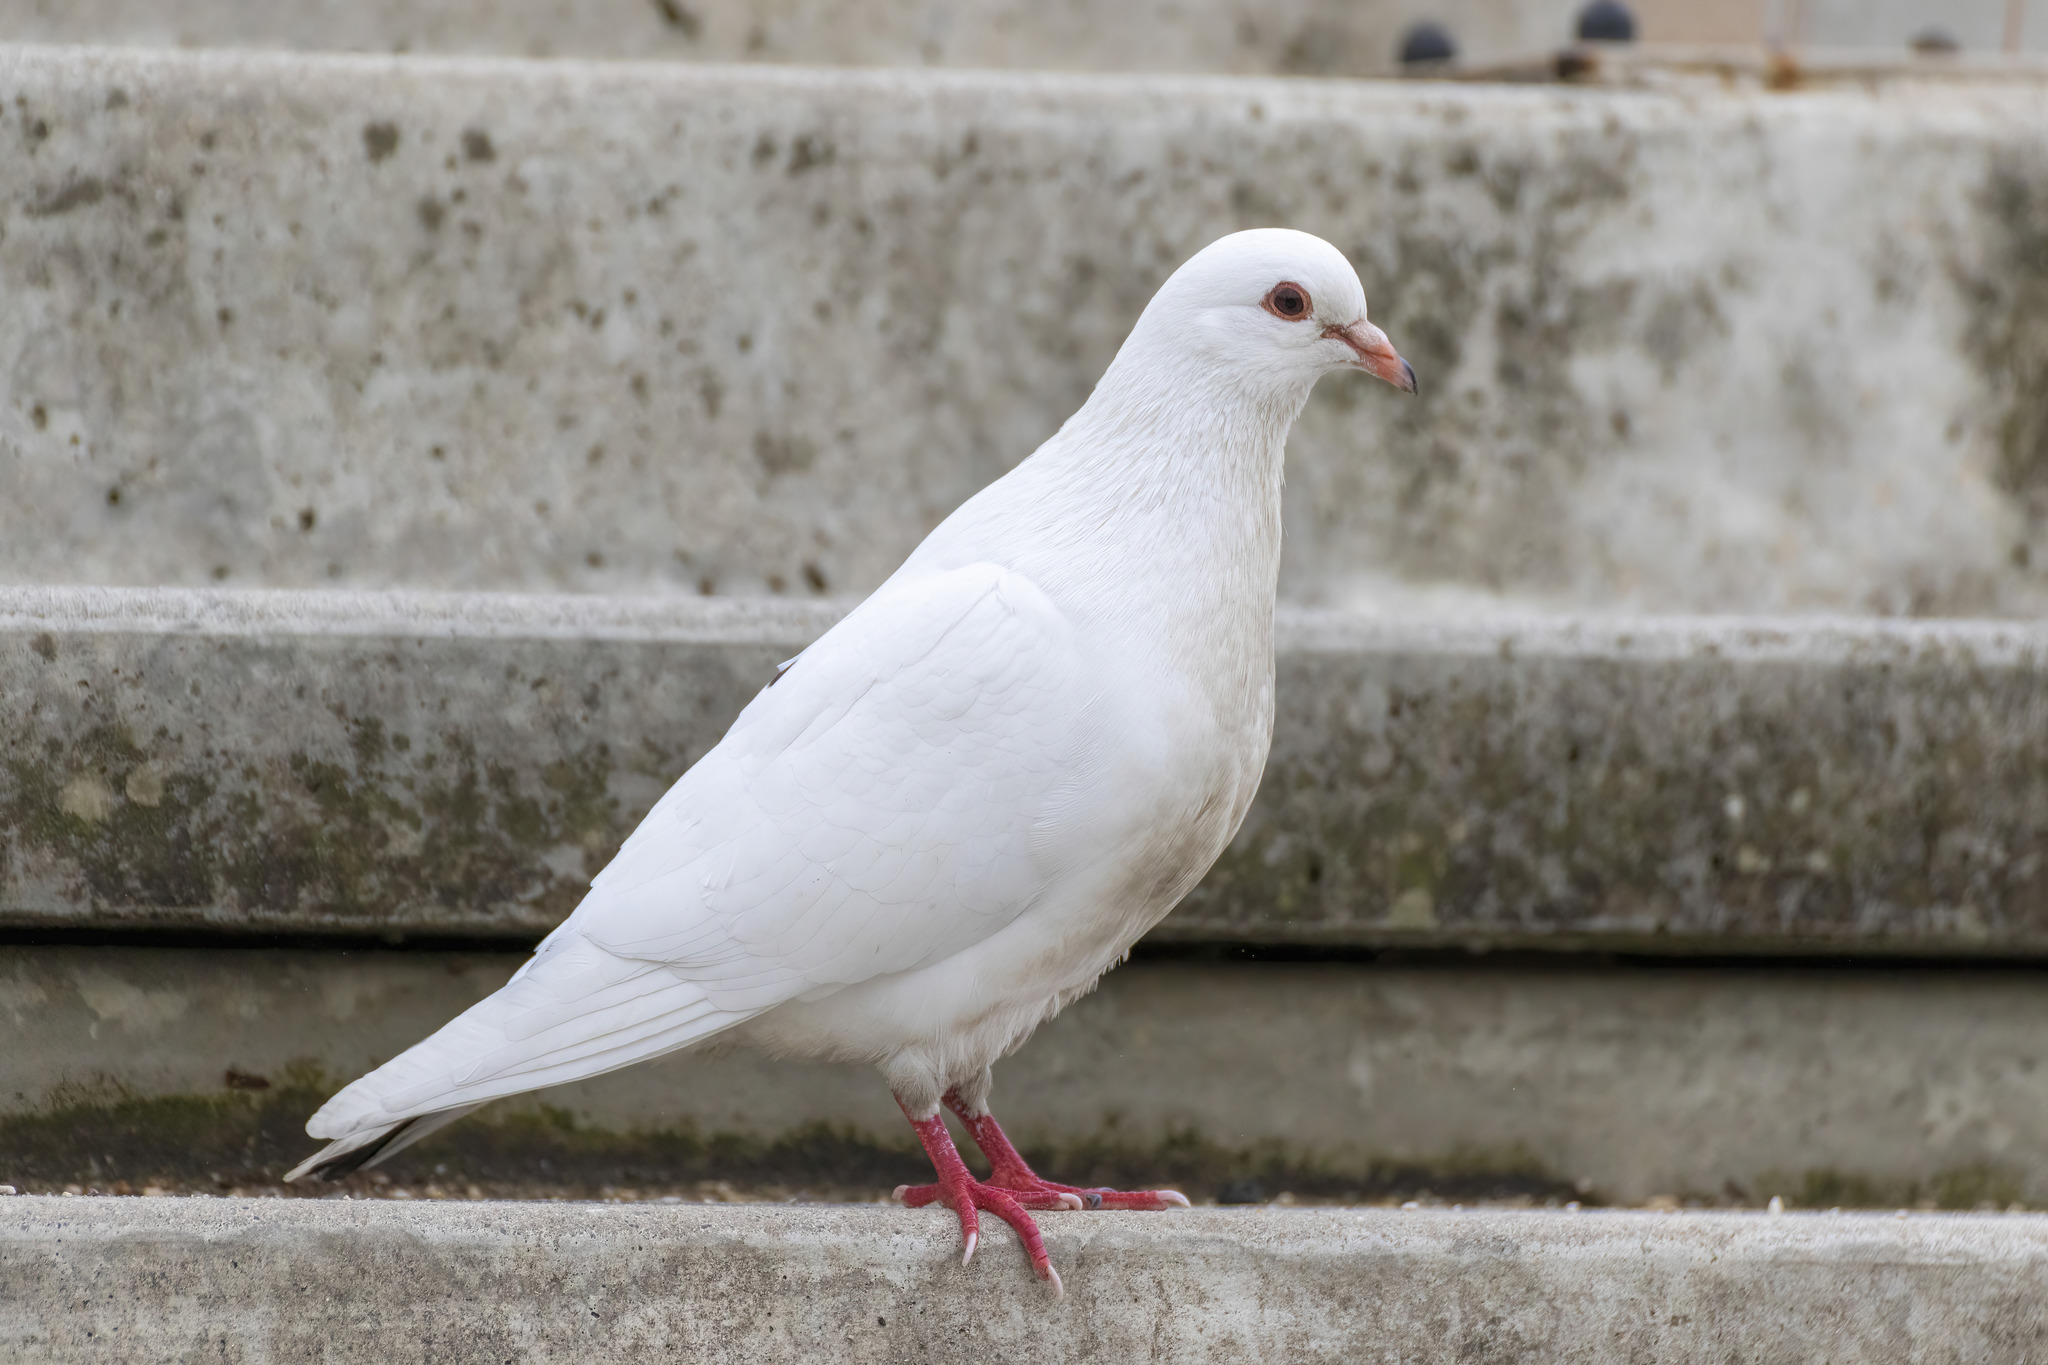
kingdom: Animalia
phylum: Chordata
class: Aves
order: Columbiformes
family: Columbidae
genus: Columba
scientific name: Columba livia
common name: Rock pigeon
